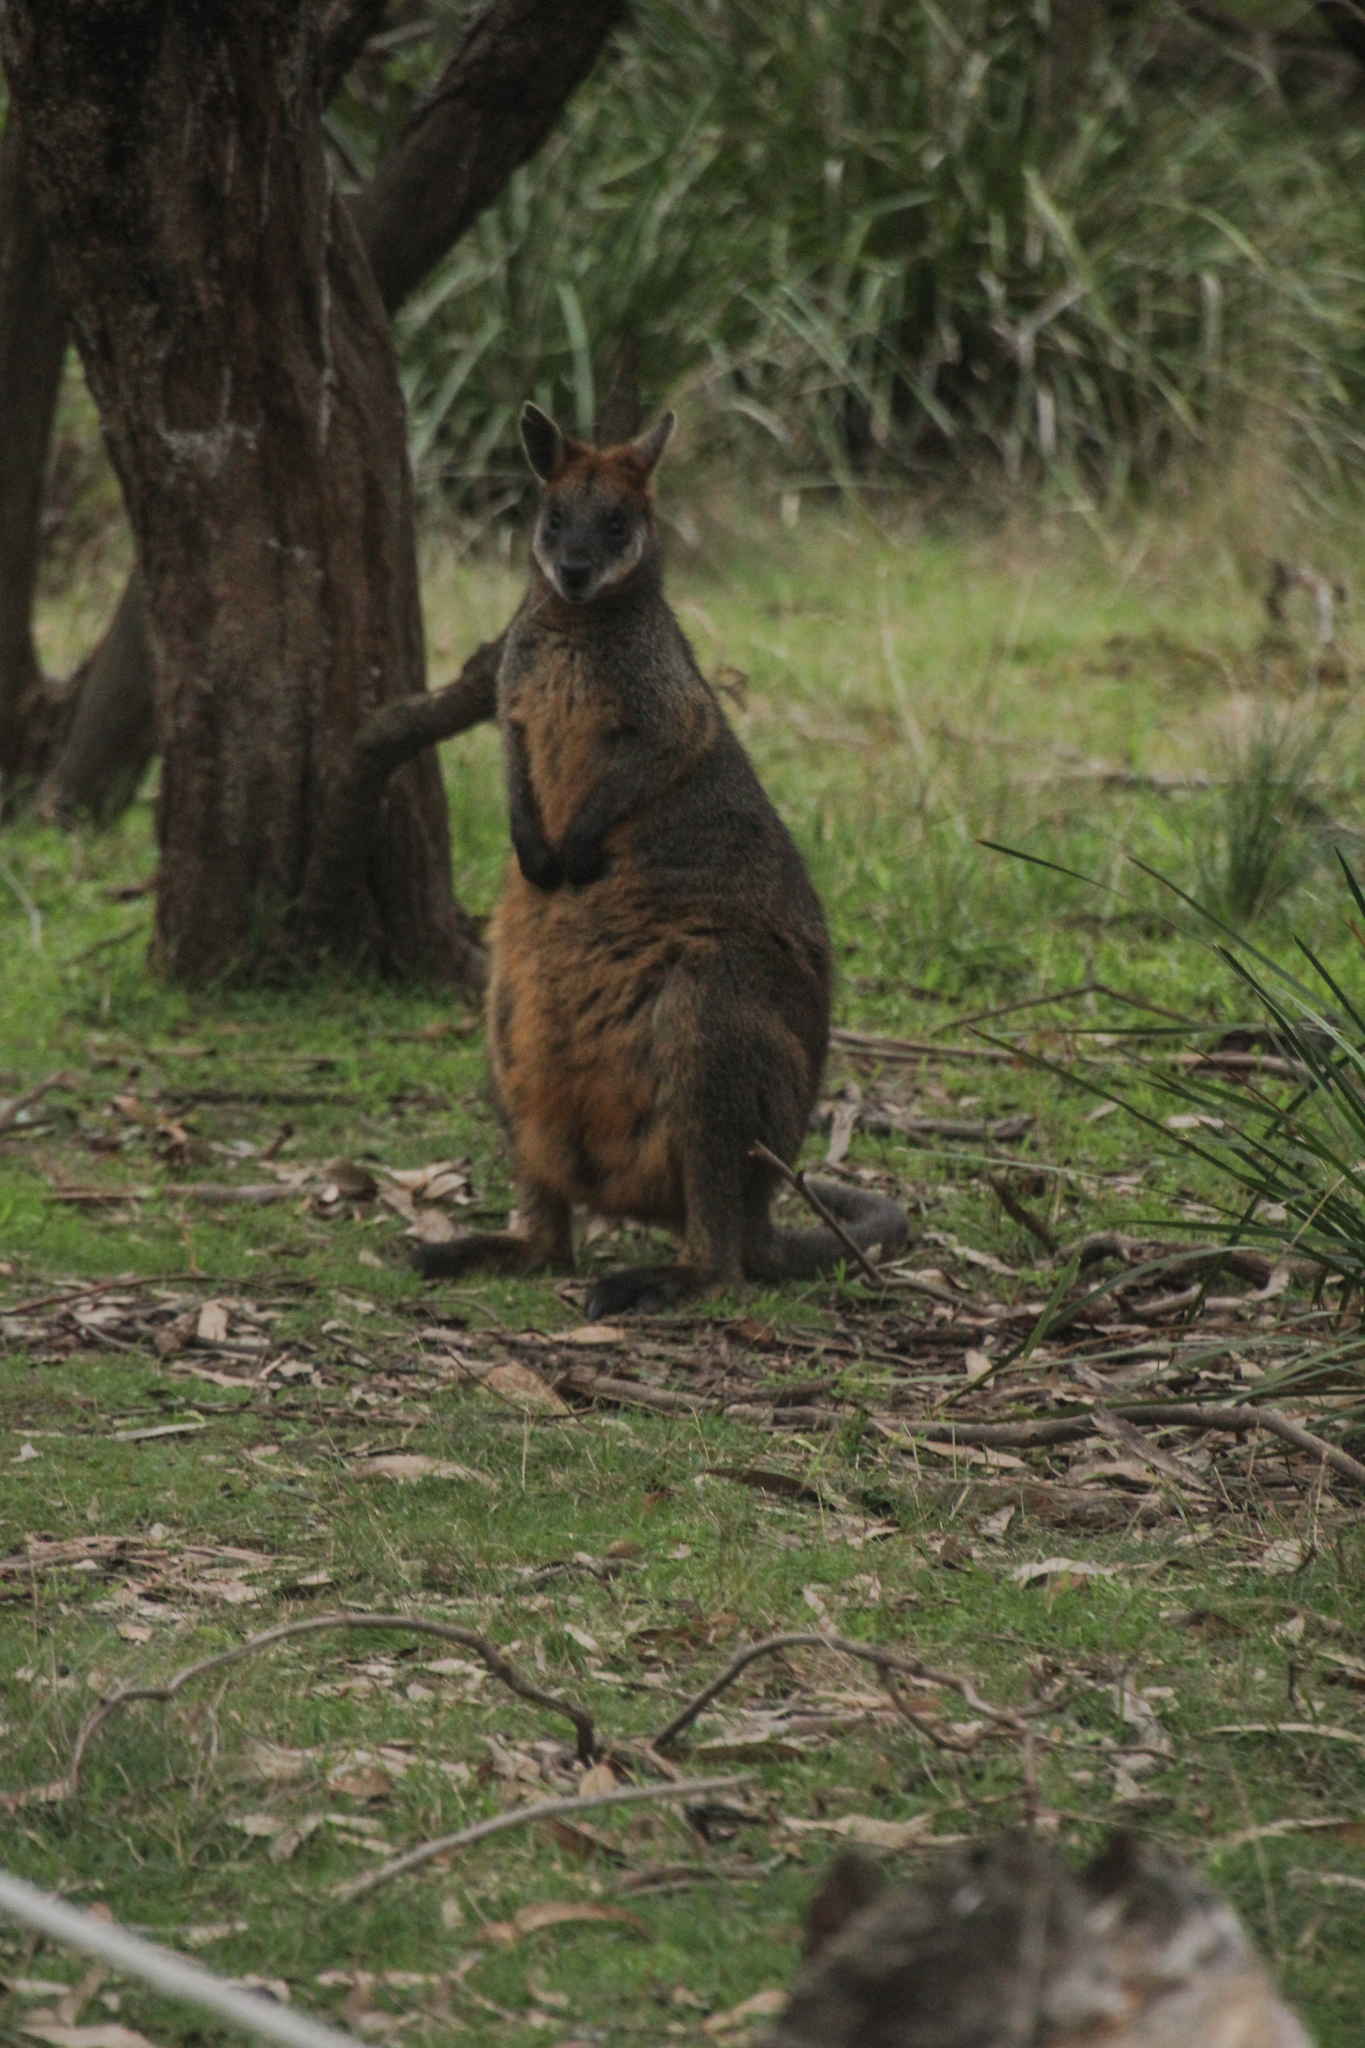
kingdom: Animalia
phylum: Chordata
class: Mammalia
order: Diprotodontia
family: Macropodidae
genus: Wallabia
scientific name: Wallabia bicolor
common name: Swamp wallaby
